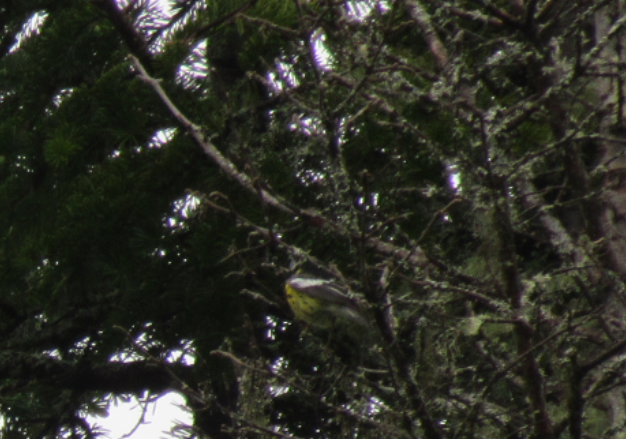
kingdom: Animalia
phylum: Chordata
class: Aves
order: Passeriformes
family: Parulidae
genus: Setophaga
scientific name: Setophaga magnolia
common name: Magnolia warbler
